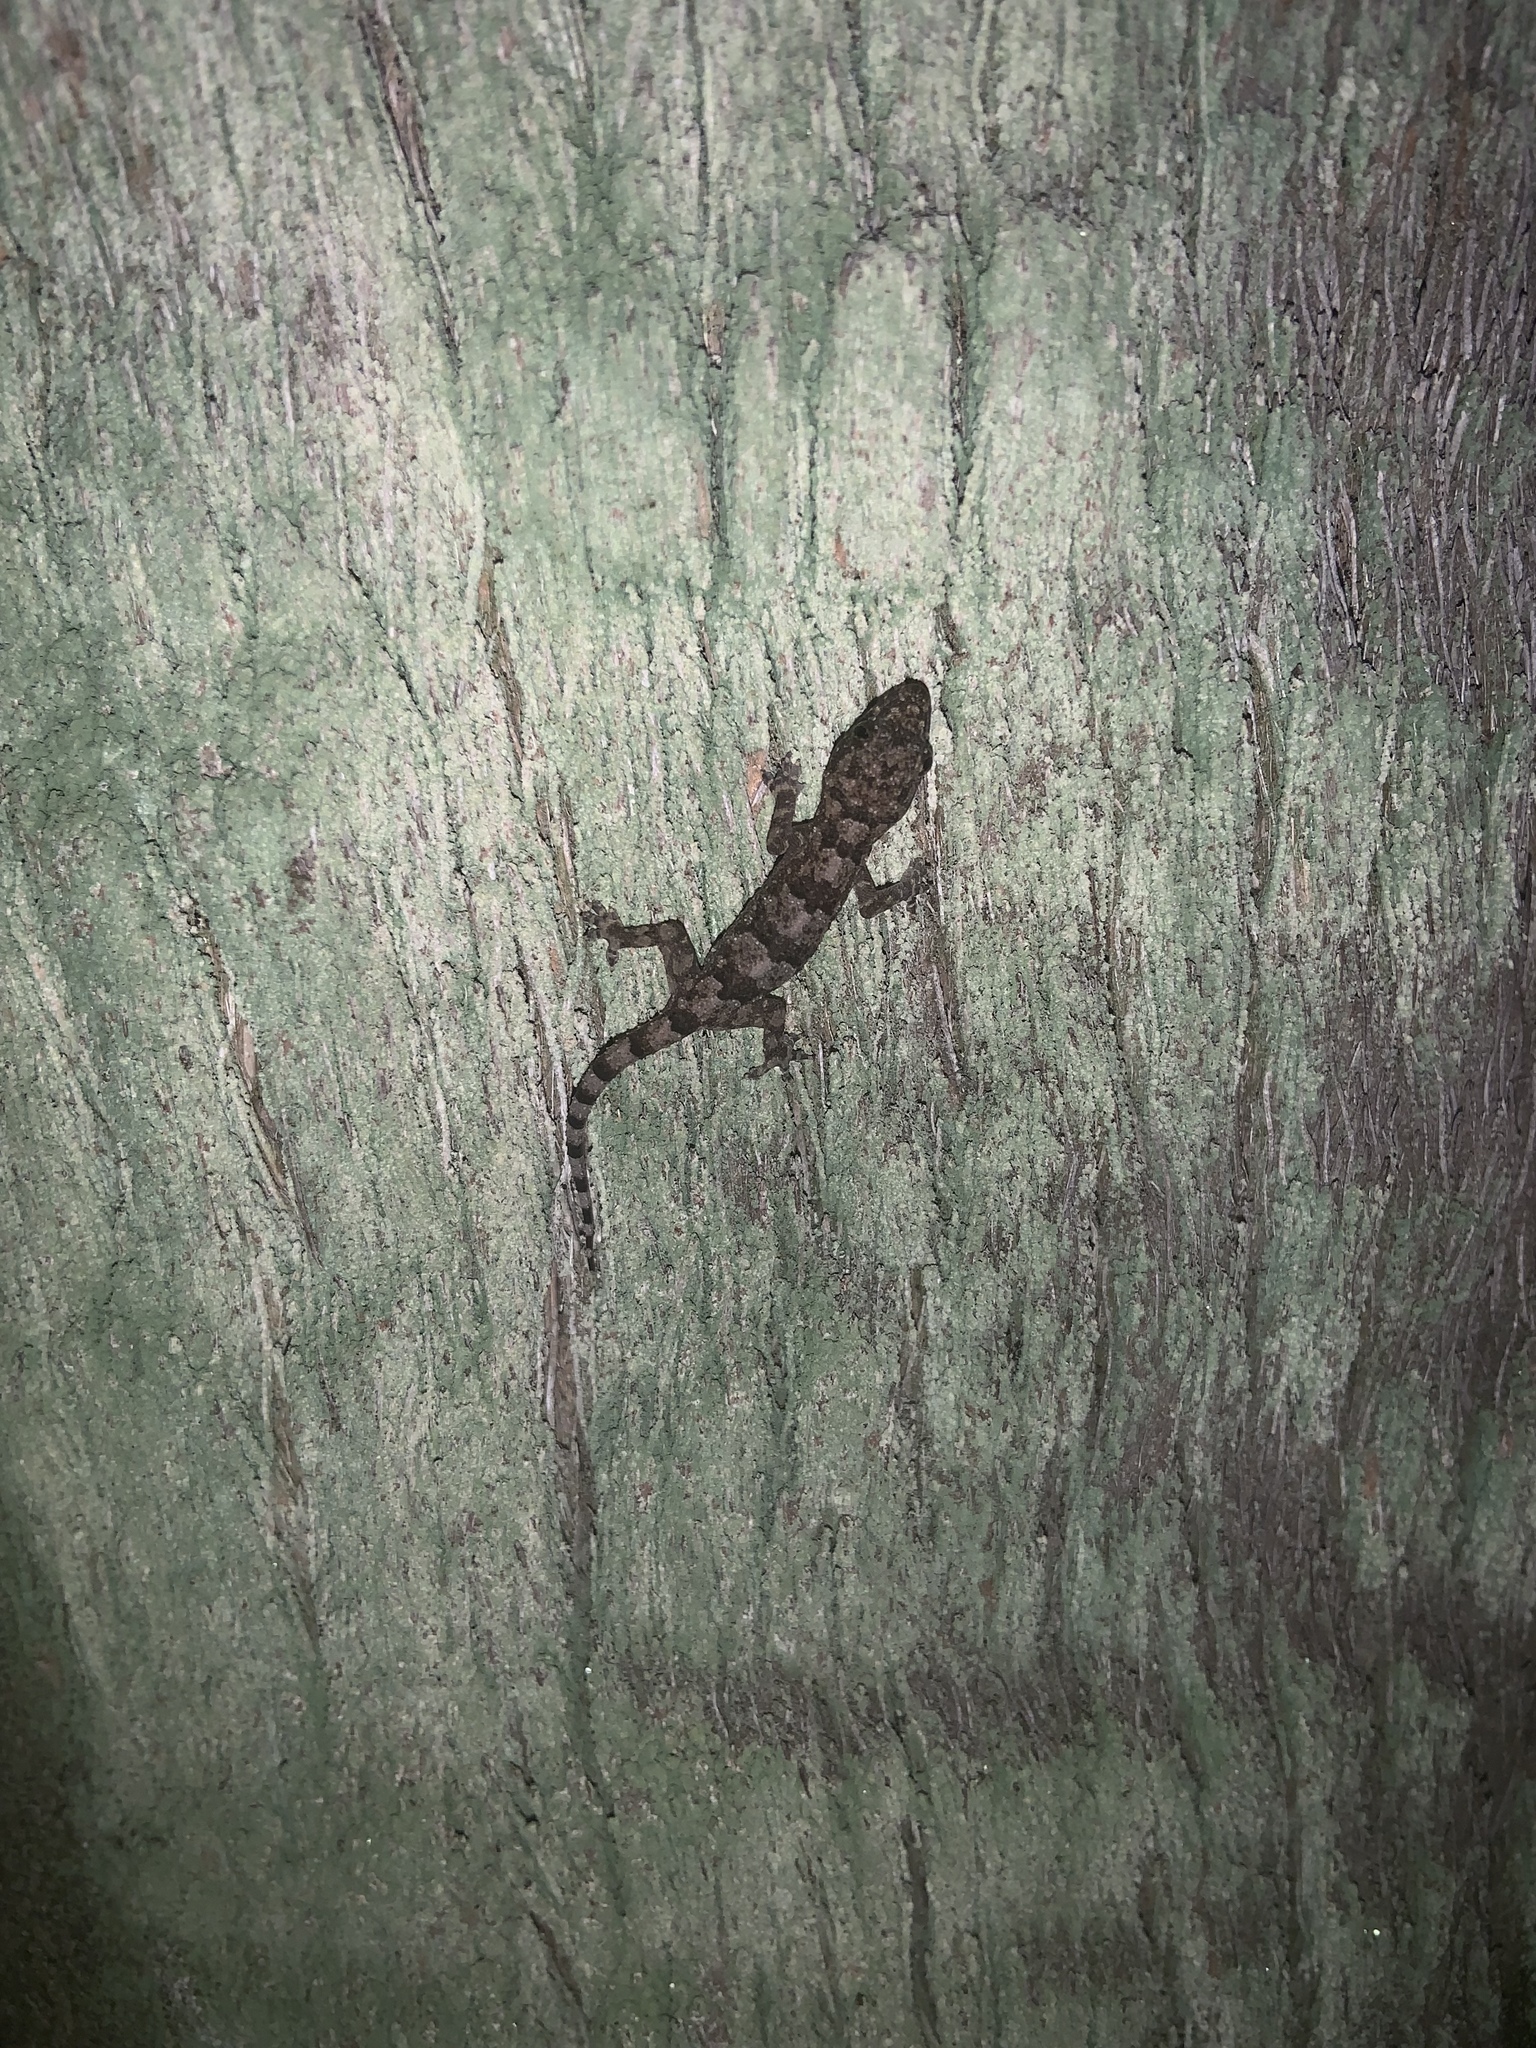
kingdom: Animalia
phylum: Chordata
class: Squamata
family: Gekkonidae
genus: Hemidactylus
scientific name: Hemidactylus mabouia
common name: House gecko
